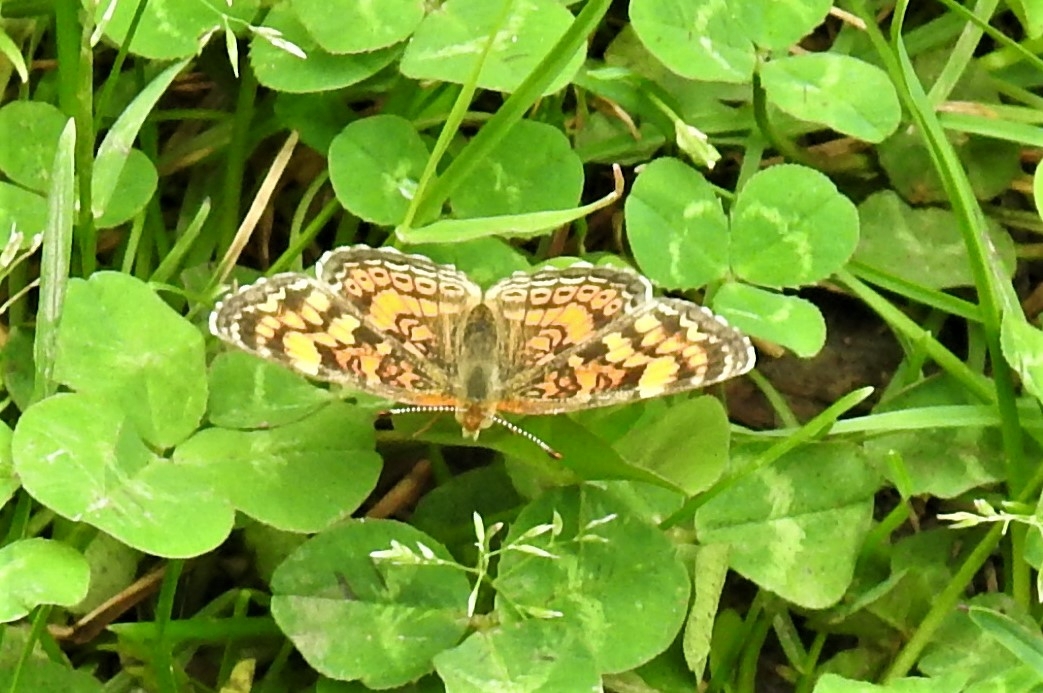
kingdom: Animalia
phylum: Arthropoda
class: Insecta
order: Lepidoptera
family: Nymphalidae
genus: Phyciodes
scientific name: Phyciodes tharos
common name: Pearl crescent
